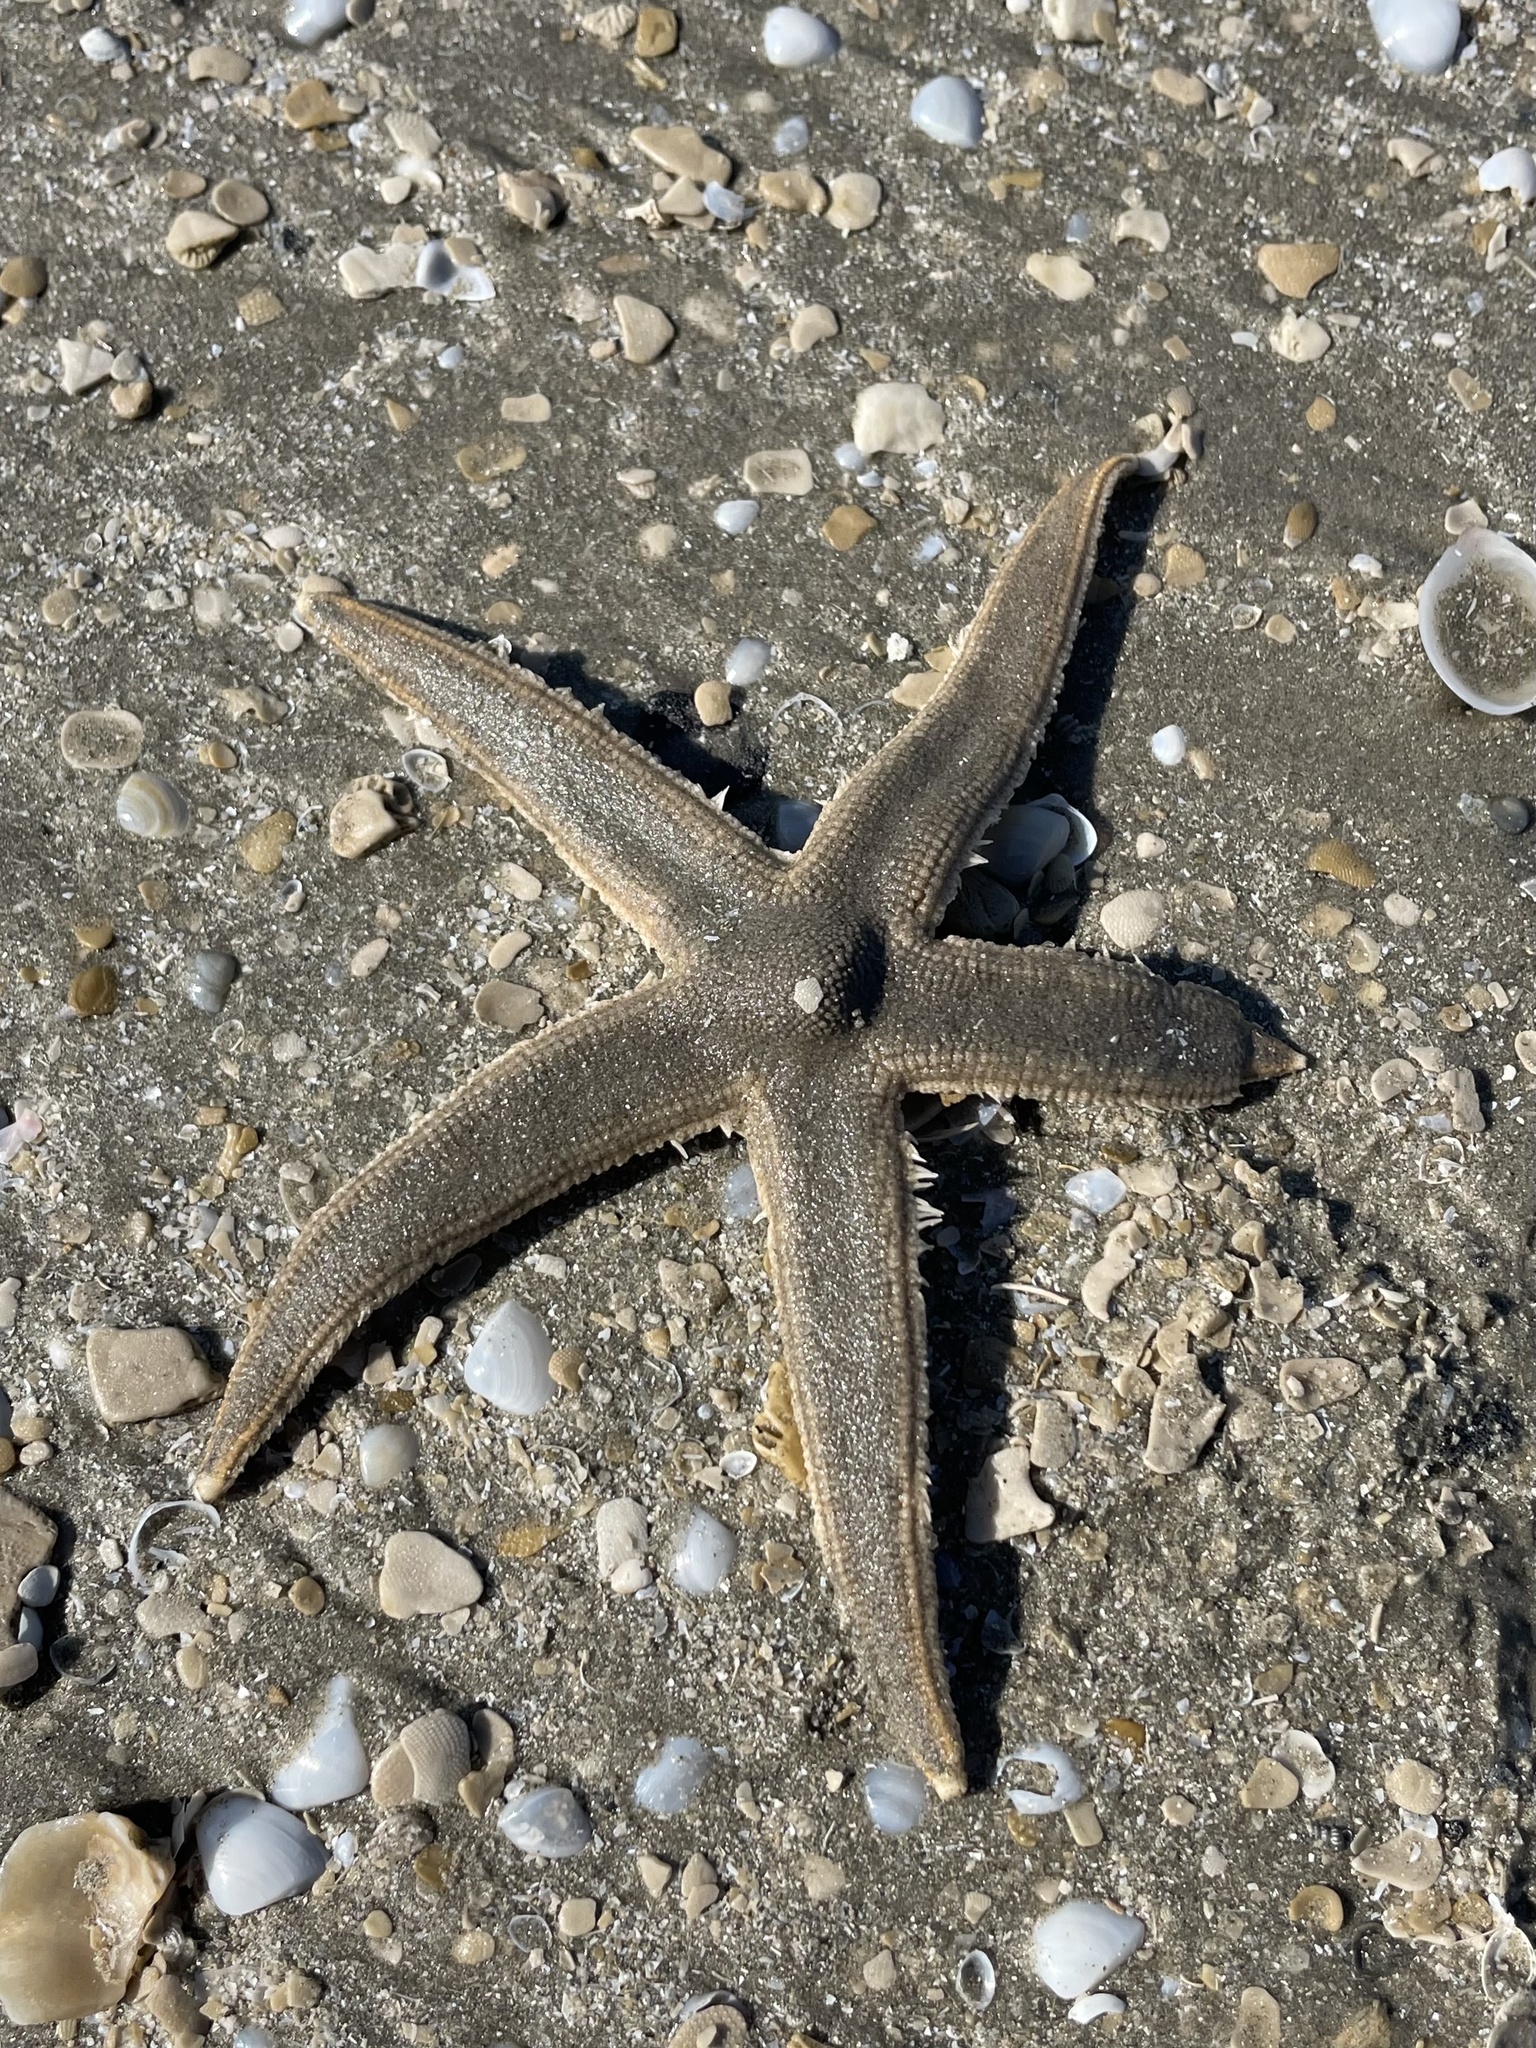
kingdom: Animalia
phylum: Echinodermata
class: Asteroidea
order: Paxillosida
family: Luidiidae
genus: Luidia
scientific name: Luidia clathrata
